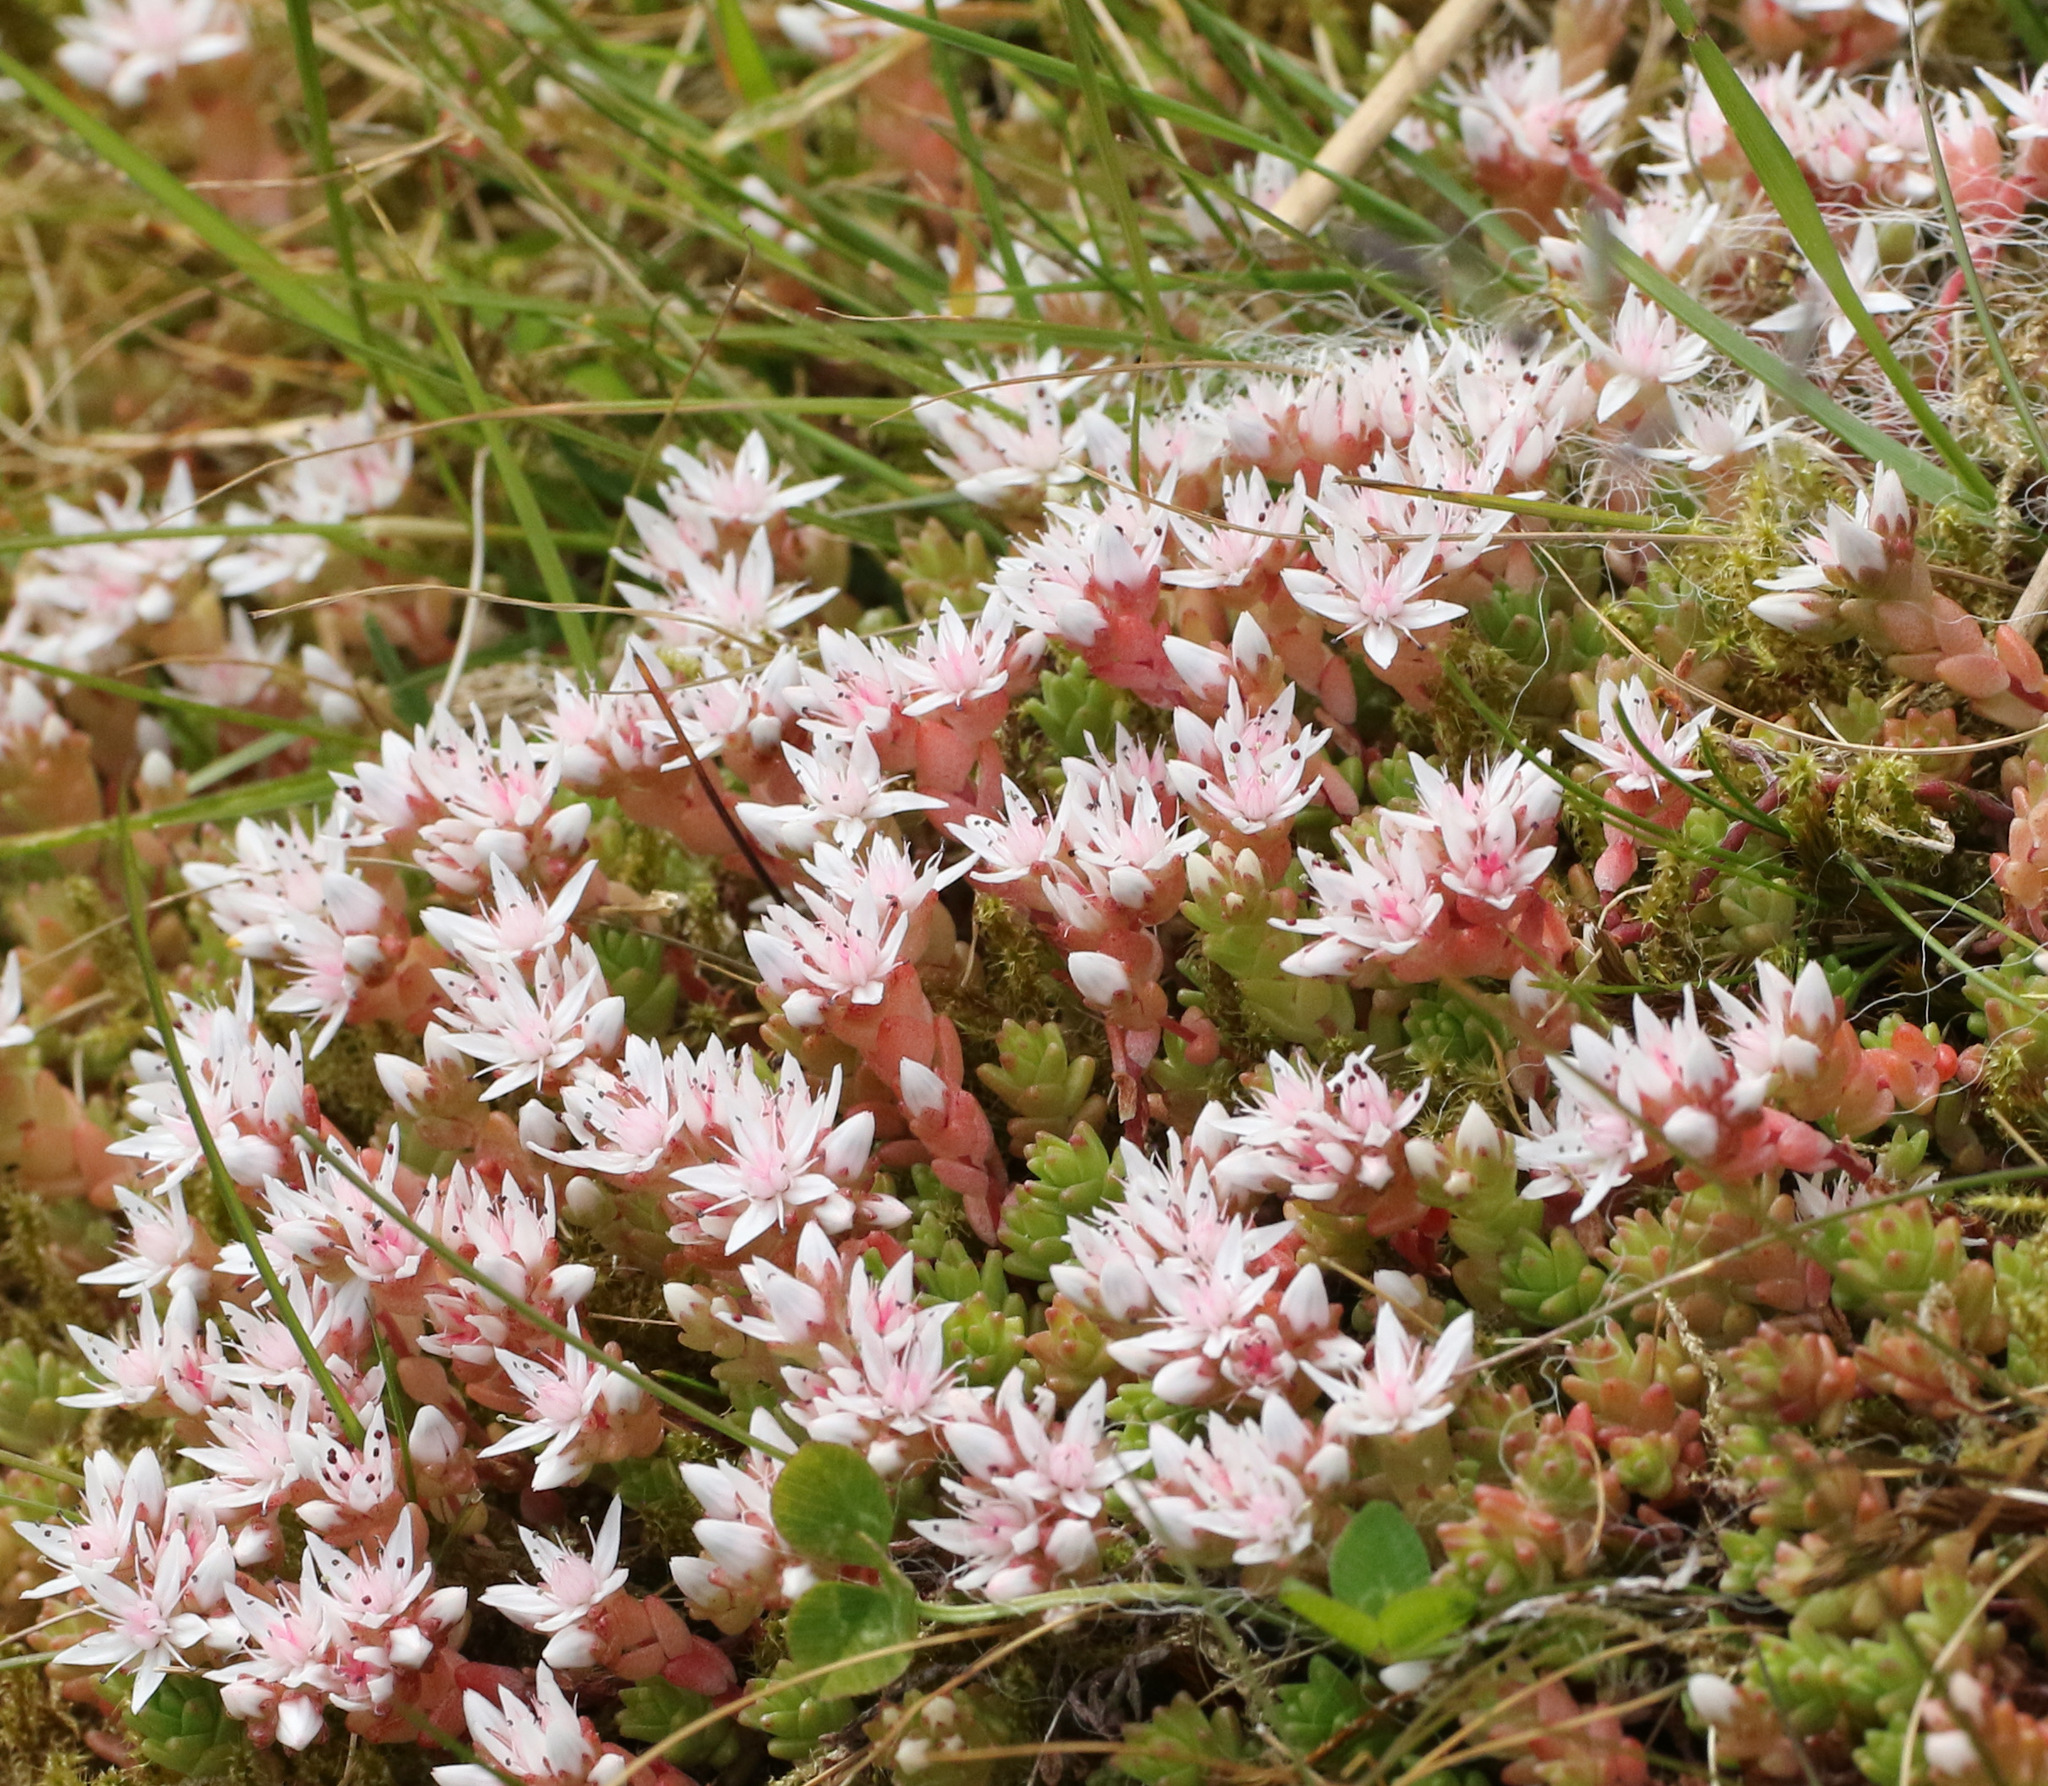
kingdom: Plantae
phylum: Tracheophyta
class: Magnoliopsida
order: Saxifragales
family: Crassulaceae
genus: Sedum
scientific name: Sedum anglicum
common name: English stonecrop
